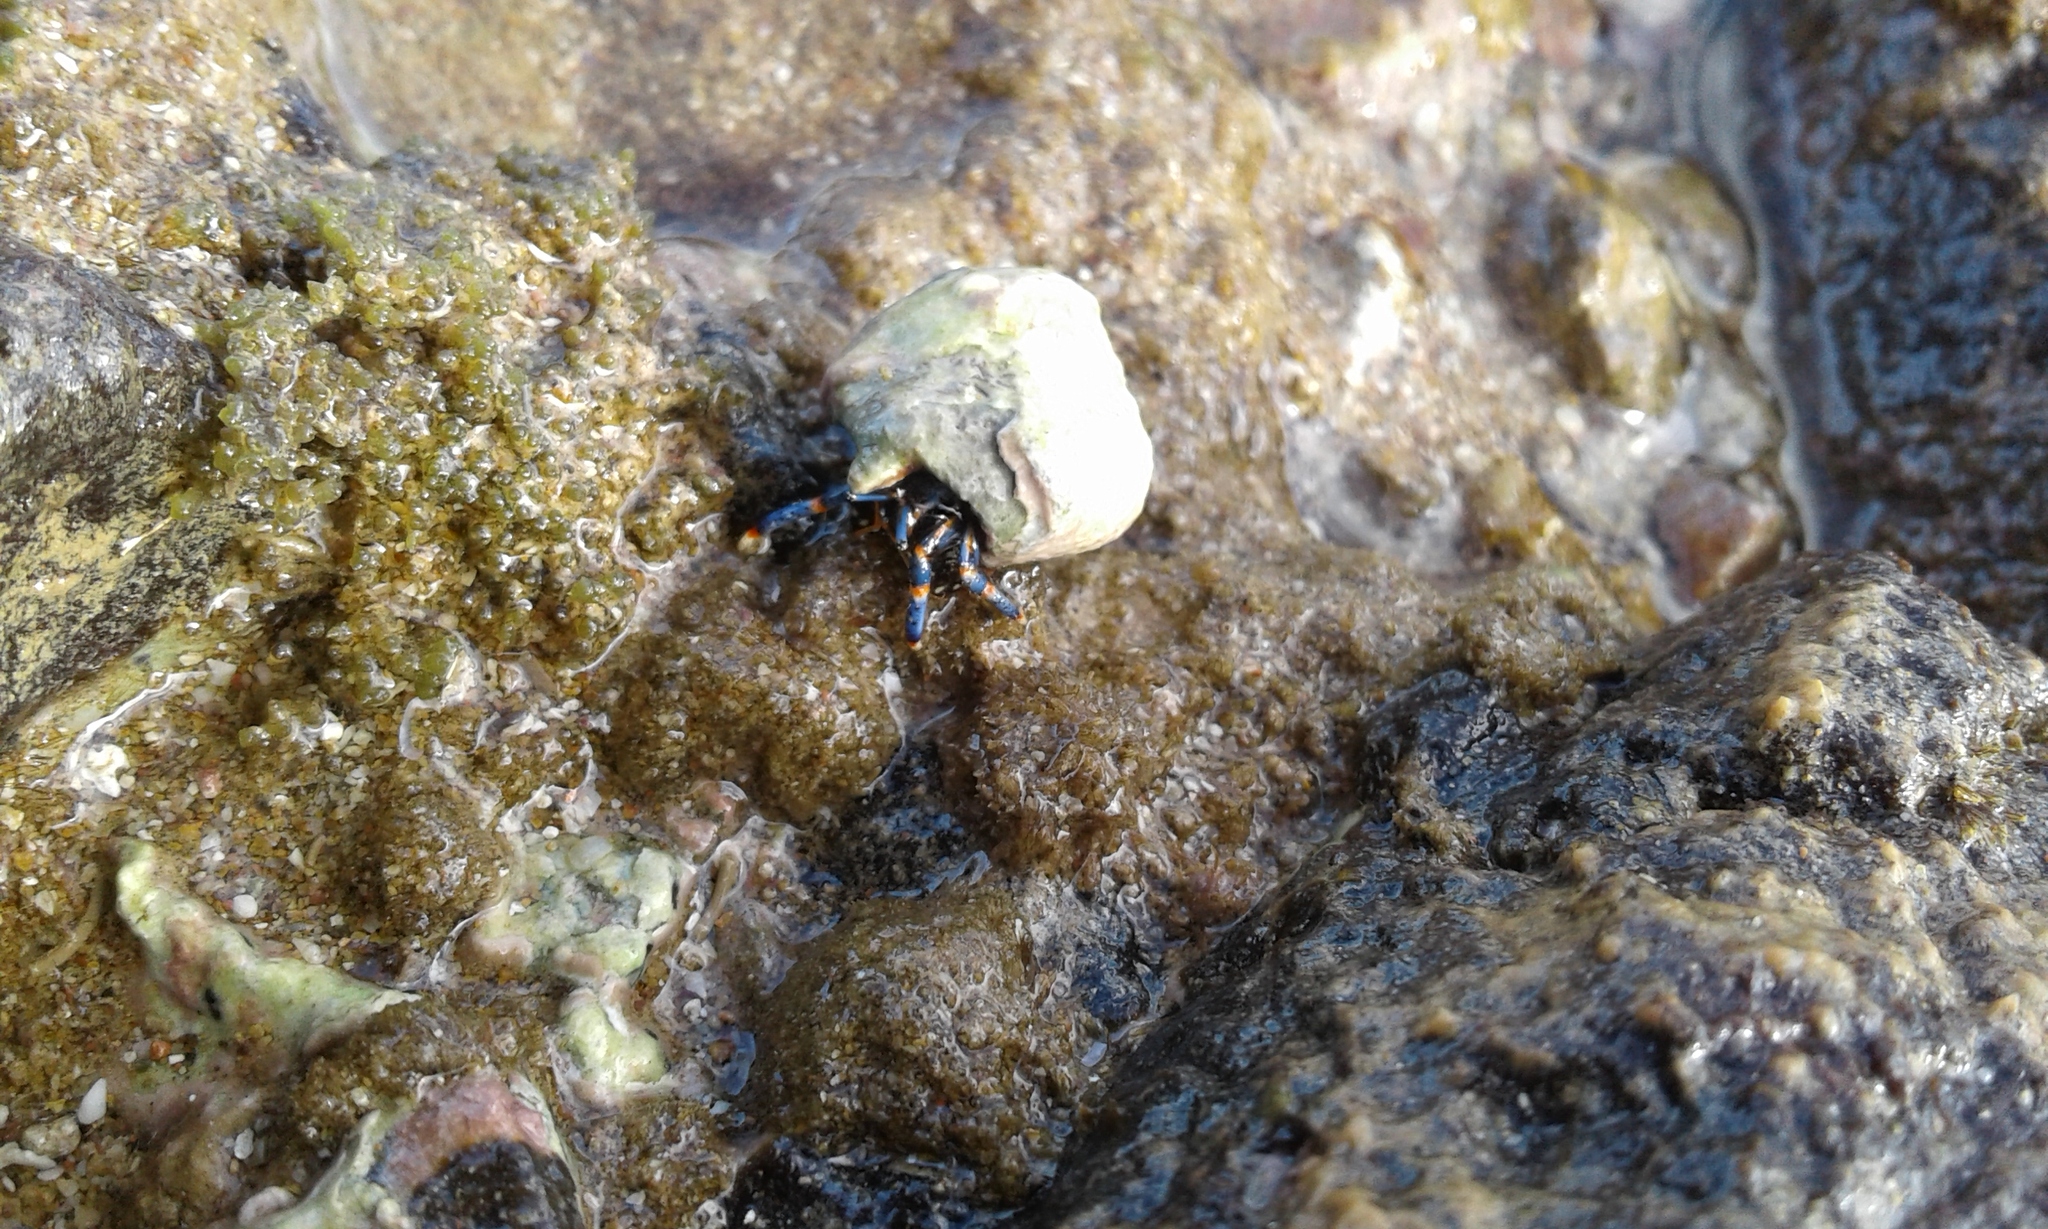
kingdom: Animalia
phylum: Arthropoda
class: Malacostraca
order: Decapoda
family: Diogenidae
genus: Clibanarius
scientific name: Clibanarius tricolor
